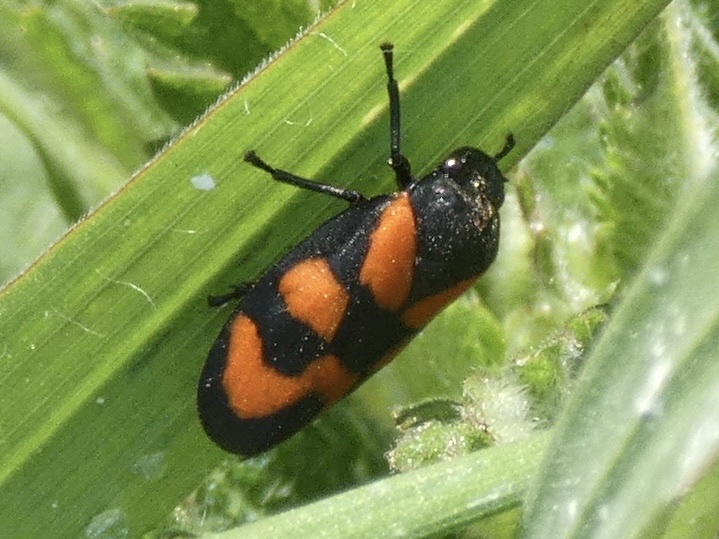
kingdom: Animalia
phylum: Arthropoda
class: Insecta
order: Hemiptera
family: Cercopidae
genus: Cercopis
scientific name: Cercopis vulnerata
